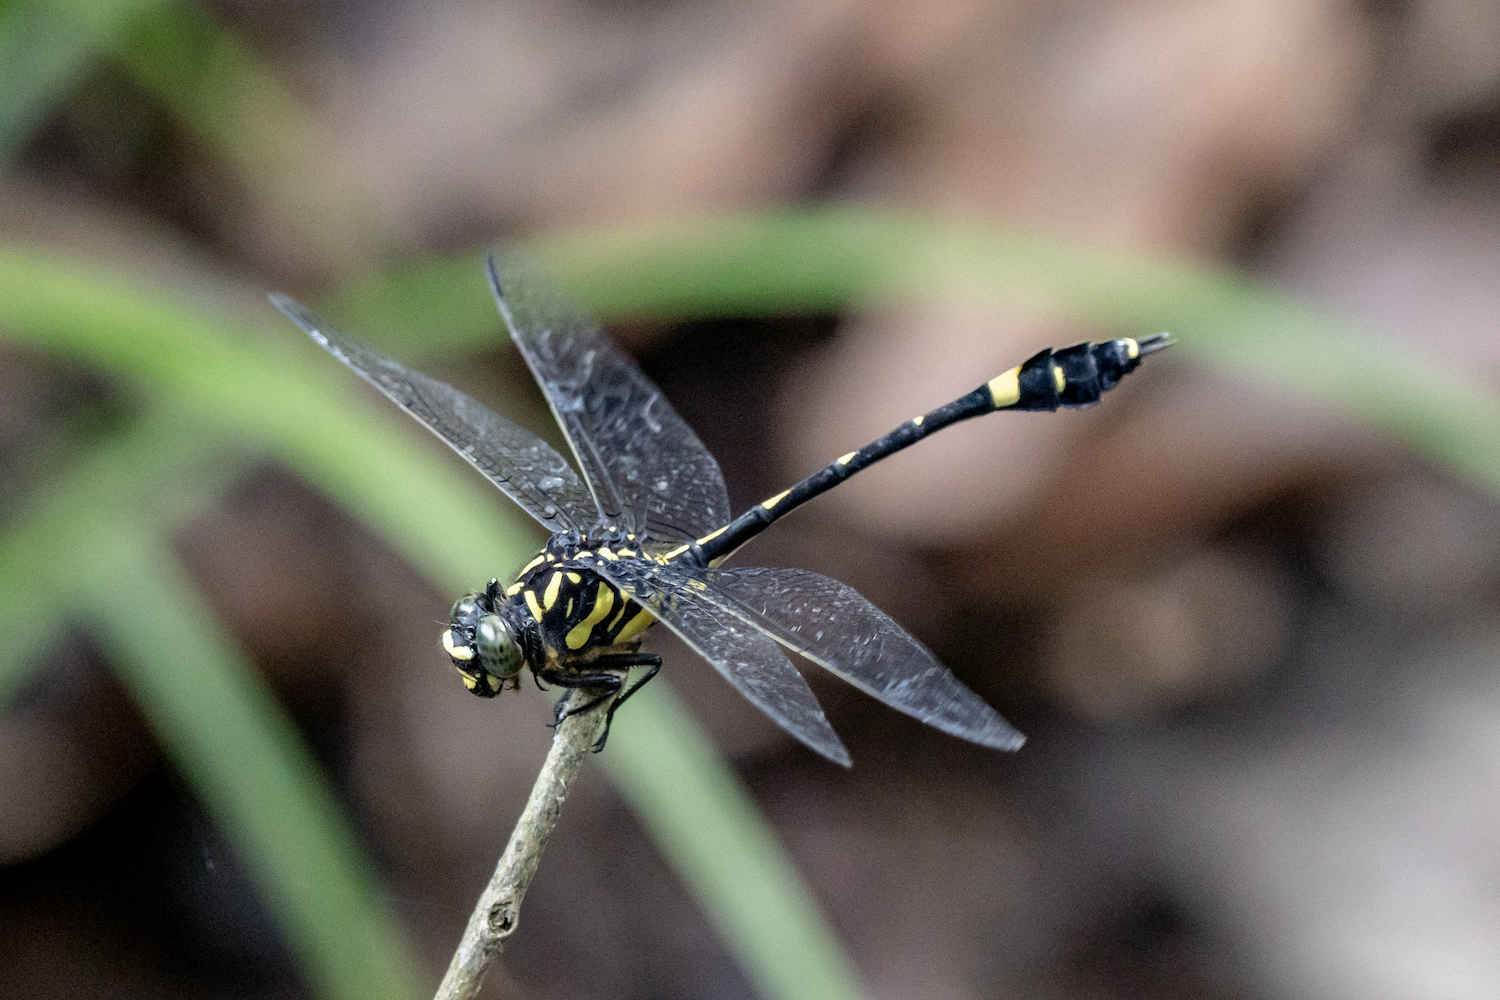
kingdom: Animalia
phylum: Arthropoda
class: Insecta
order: Odonata
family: Gomphidae
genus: Gomphidia
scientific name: Gomphidia kelloggi
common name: Chinese tiger
